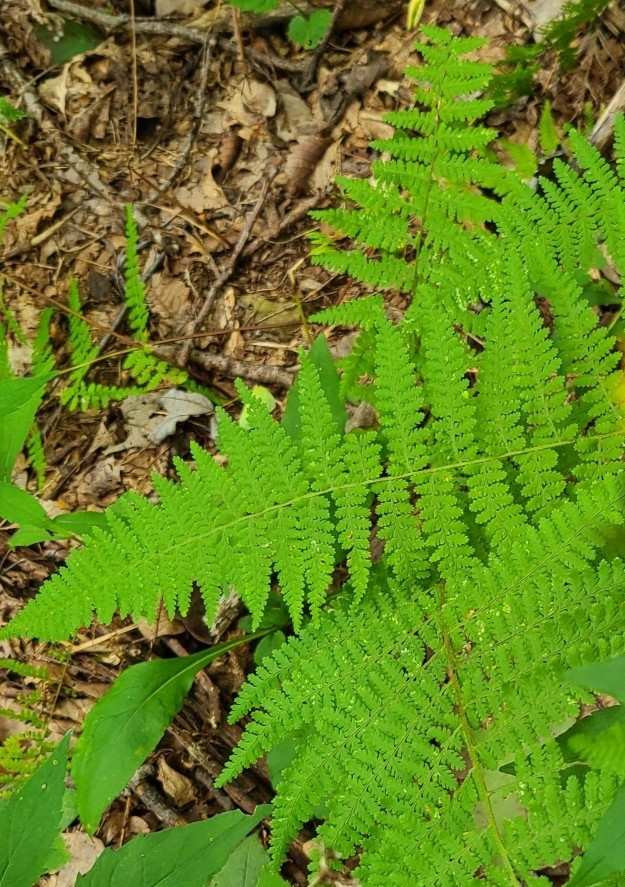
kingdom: Plantae
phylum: Tracheophyta
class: Polypodiopsida
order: Polypodiales
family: Dennstaedtiaceae
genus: Sitobolium
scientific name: Sitobolium punctilobum
